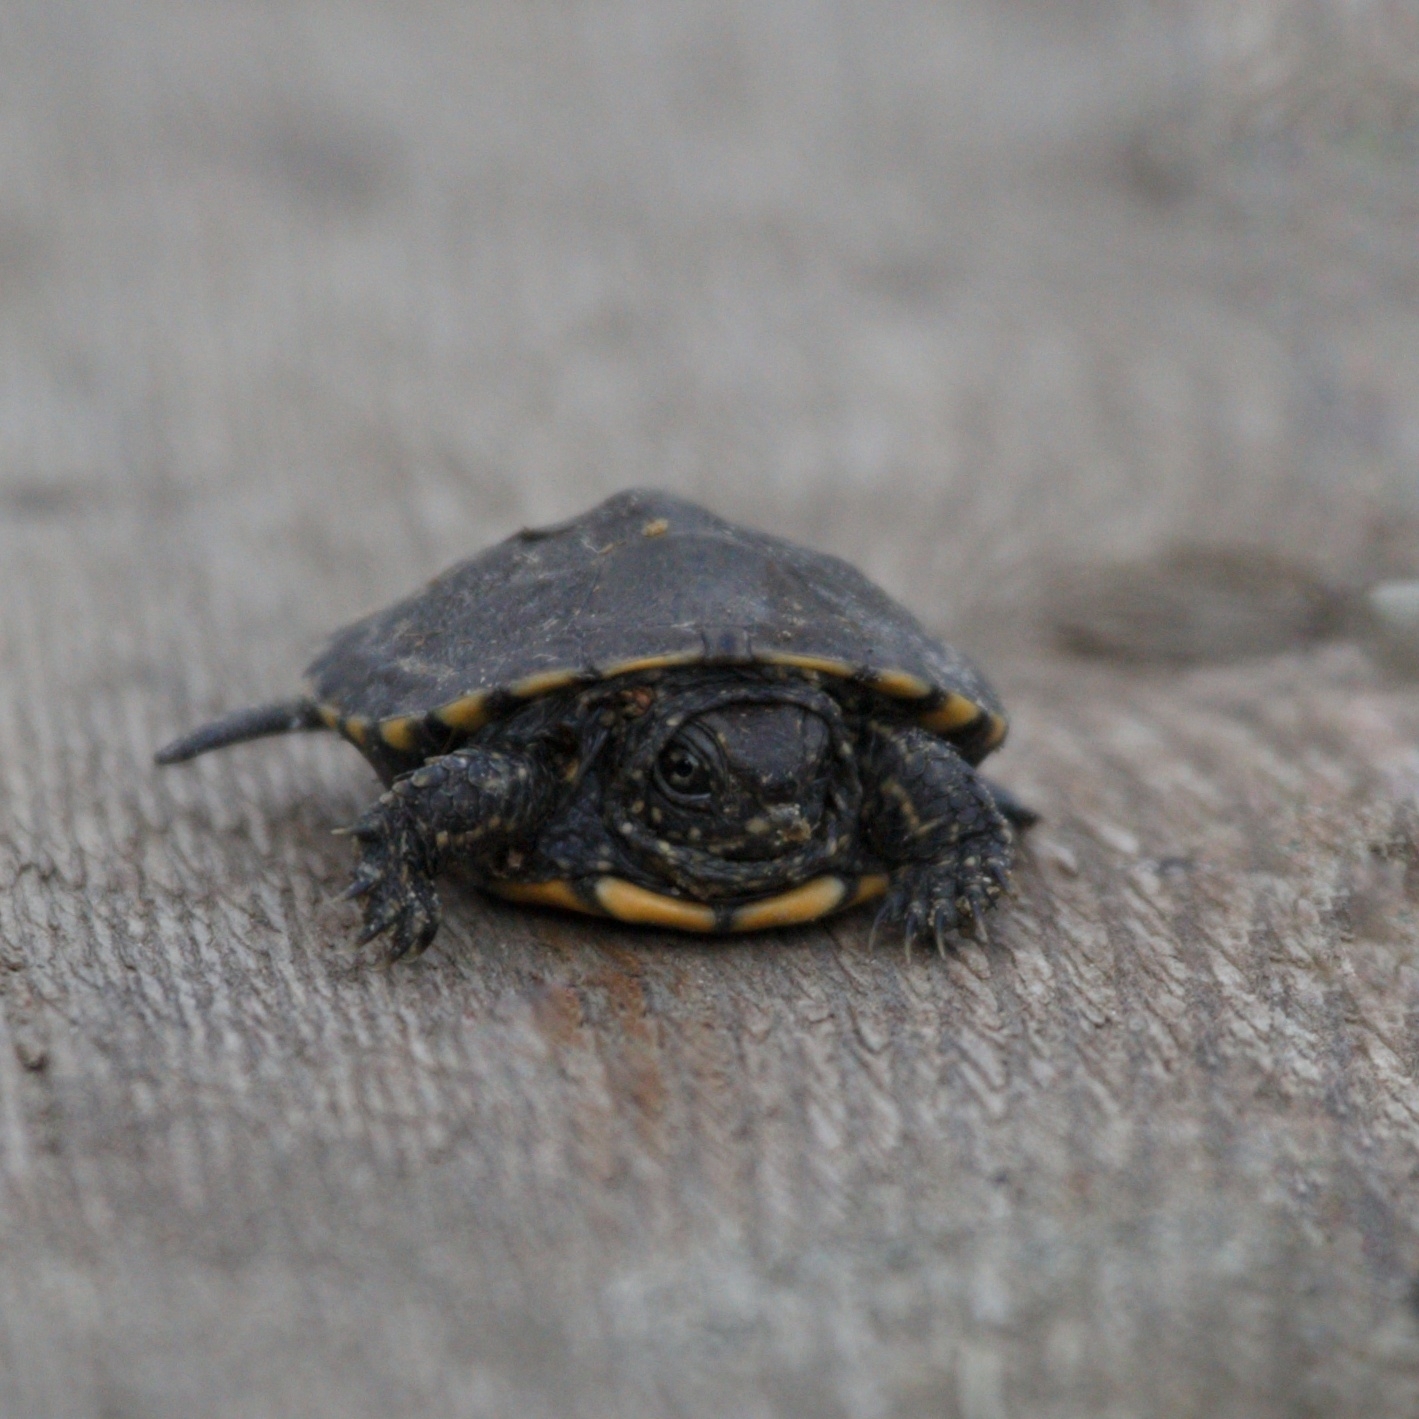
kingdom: Animalia
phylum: Chordata
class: Testudines
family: Emydidae
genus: Emys
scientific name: Emys orbicularis
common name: European pond turtle
